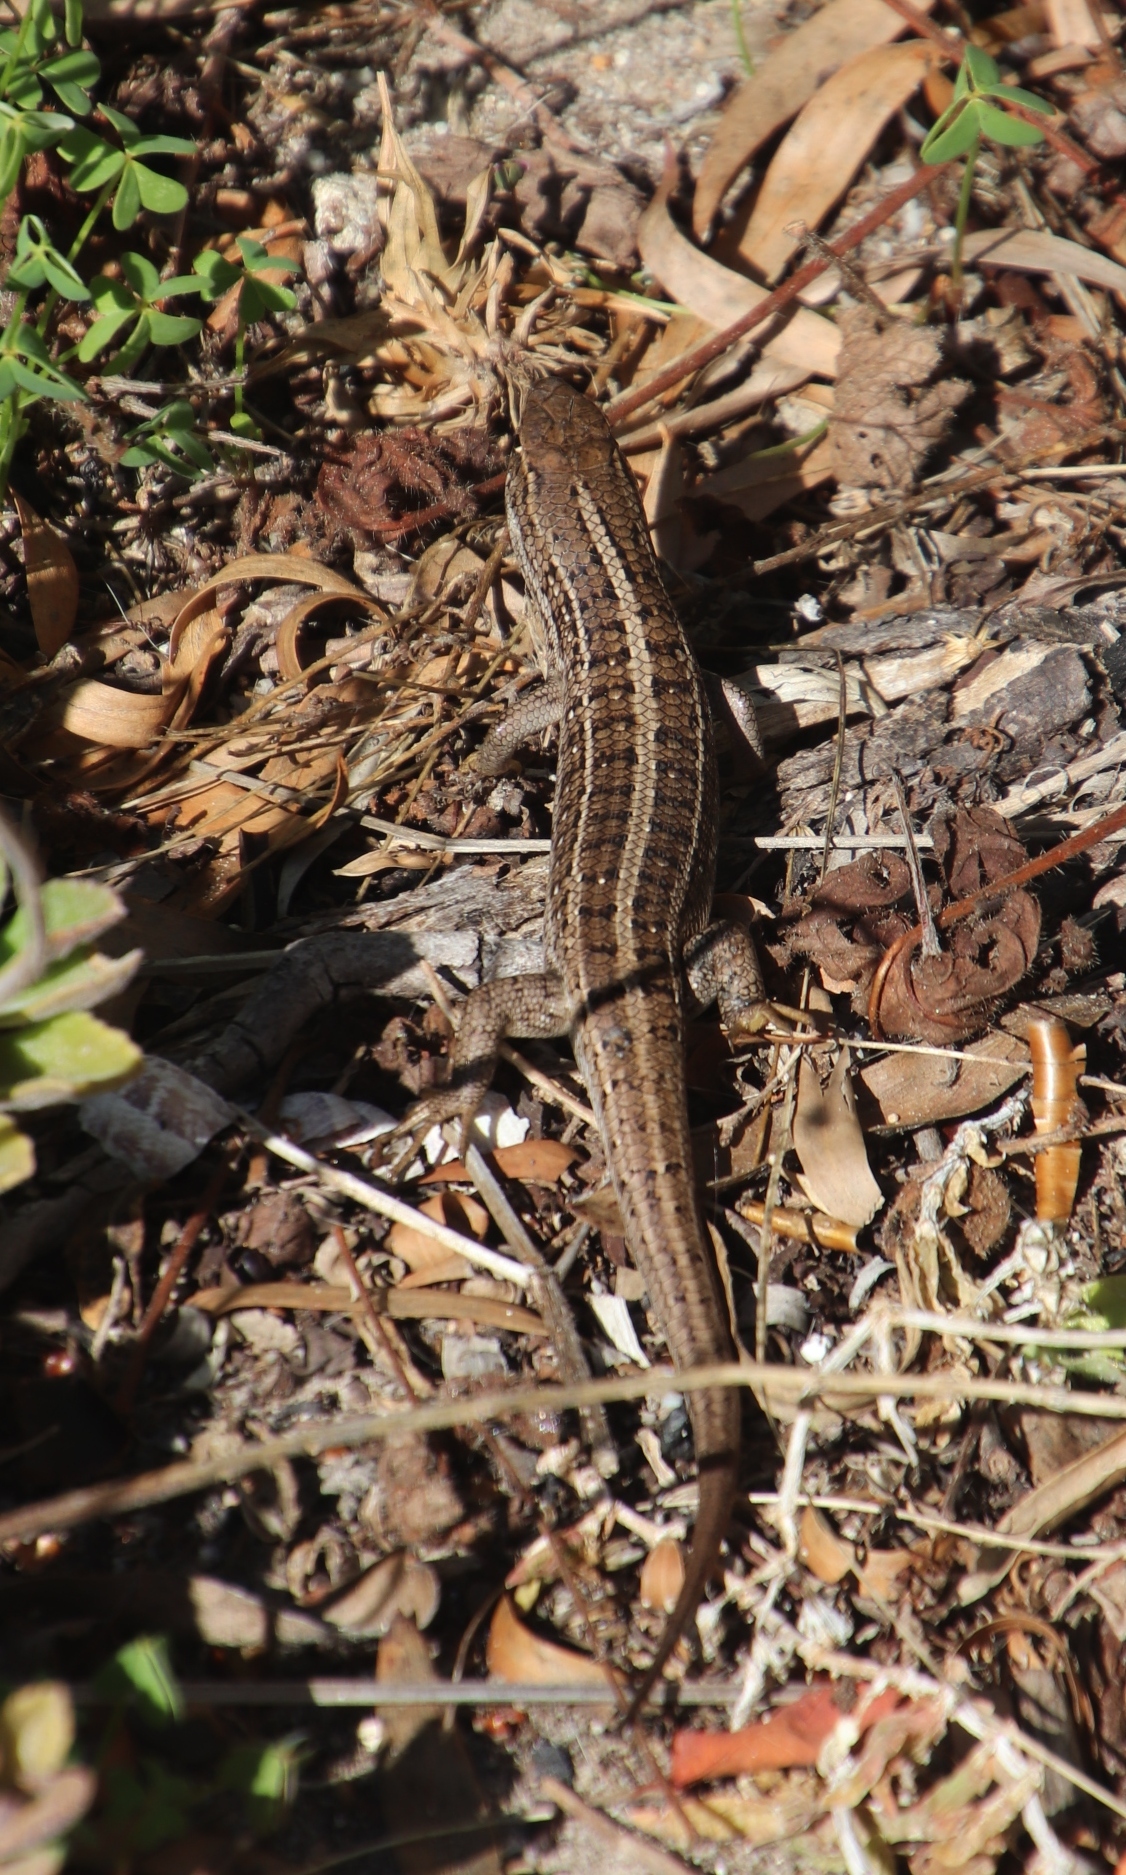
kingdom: Animalia
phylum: Chordata
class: Squamata
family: Scincidae
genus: Trachylepis
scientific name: Trachylepis capensis
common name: Cape skink
